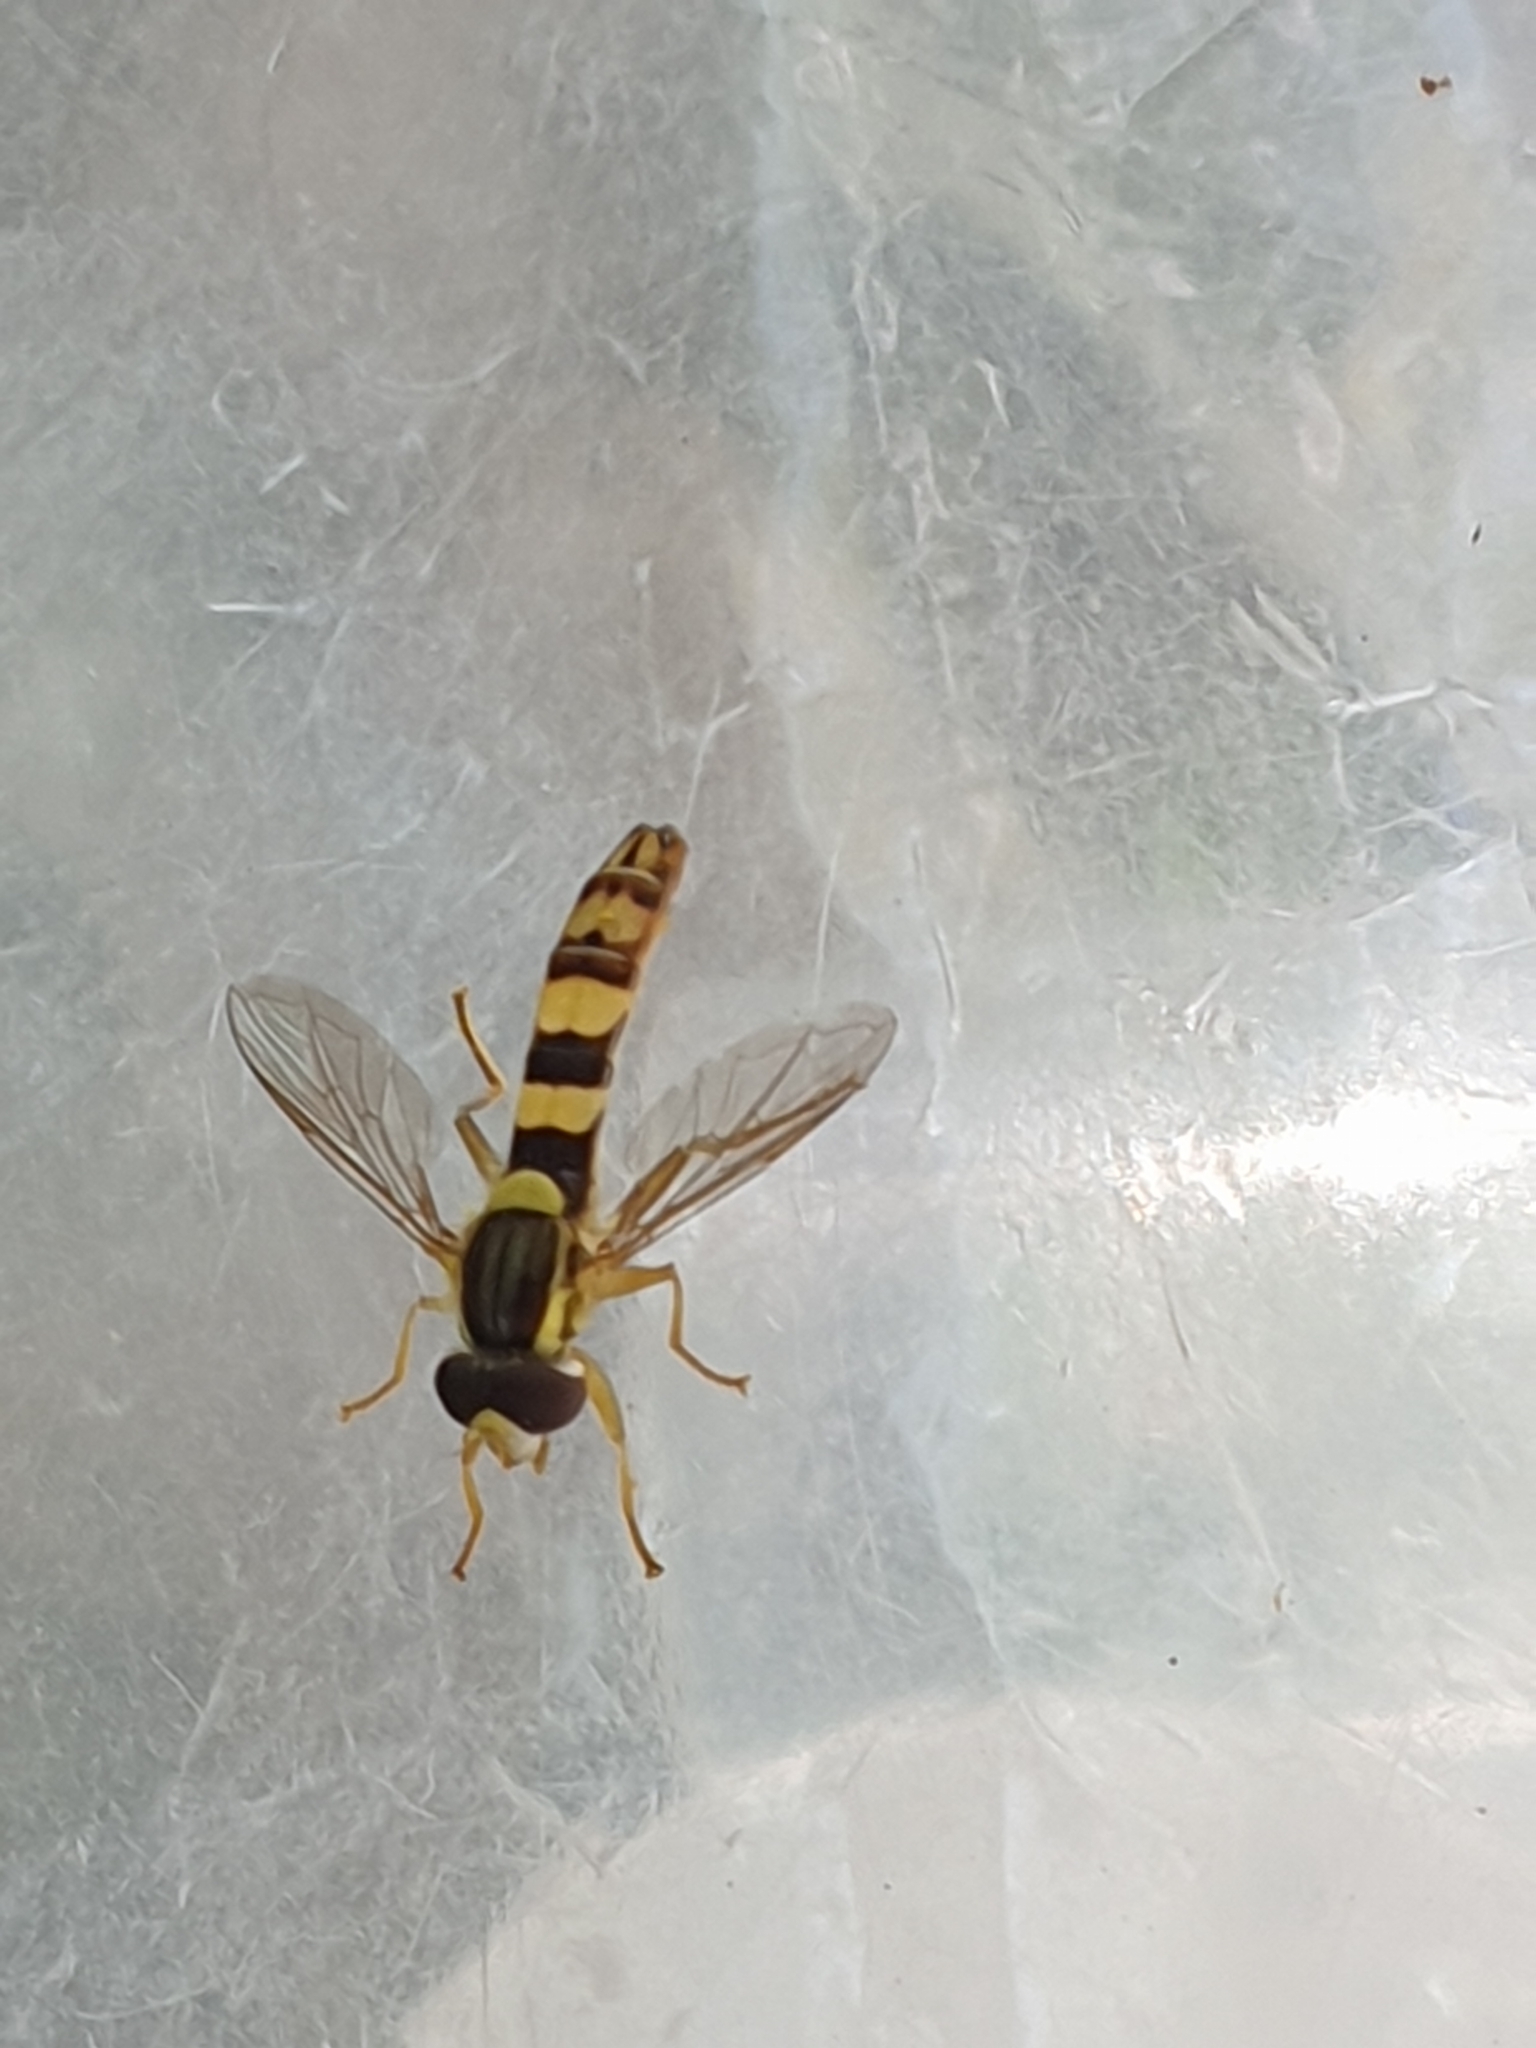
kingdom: Animalia
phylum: Arthropoda
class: Insecta
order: Diptera
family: Syrphidae
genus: Sphaerophoria
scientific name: Sphaerophoria scripta
